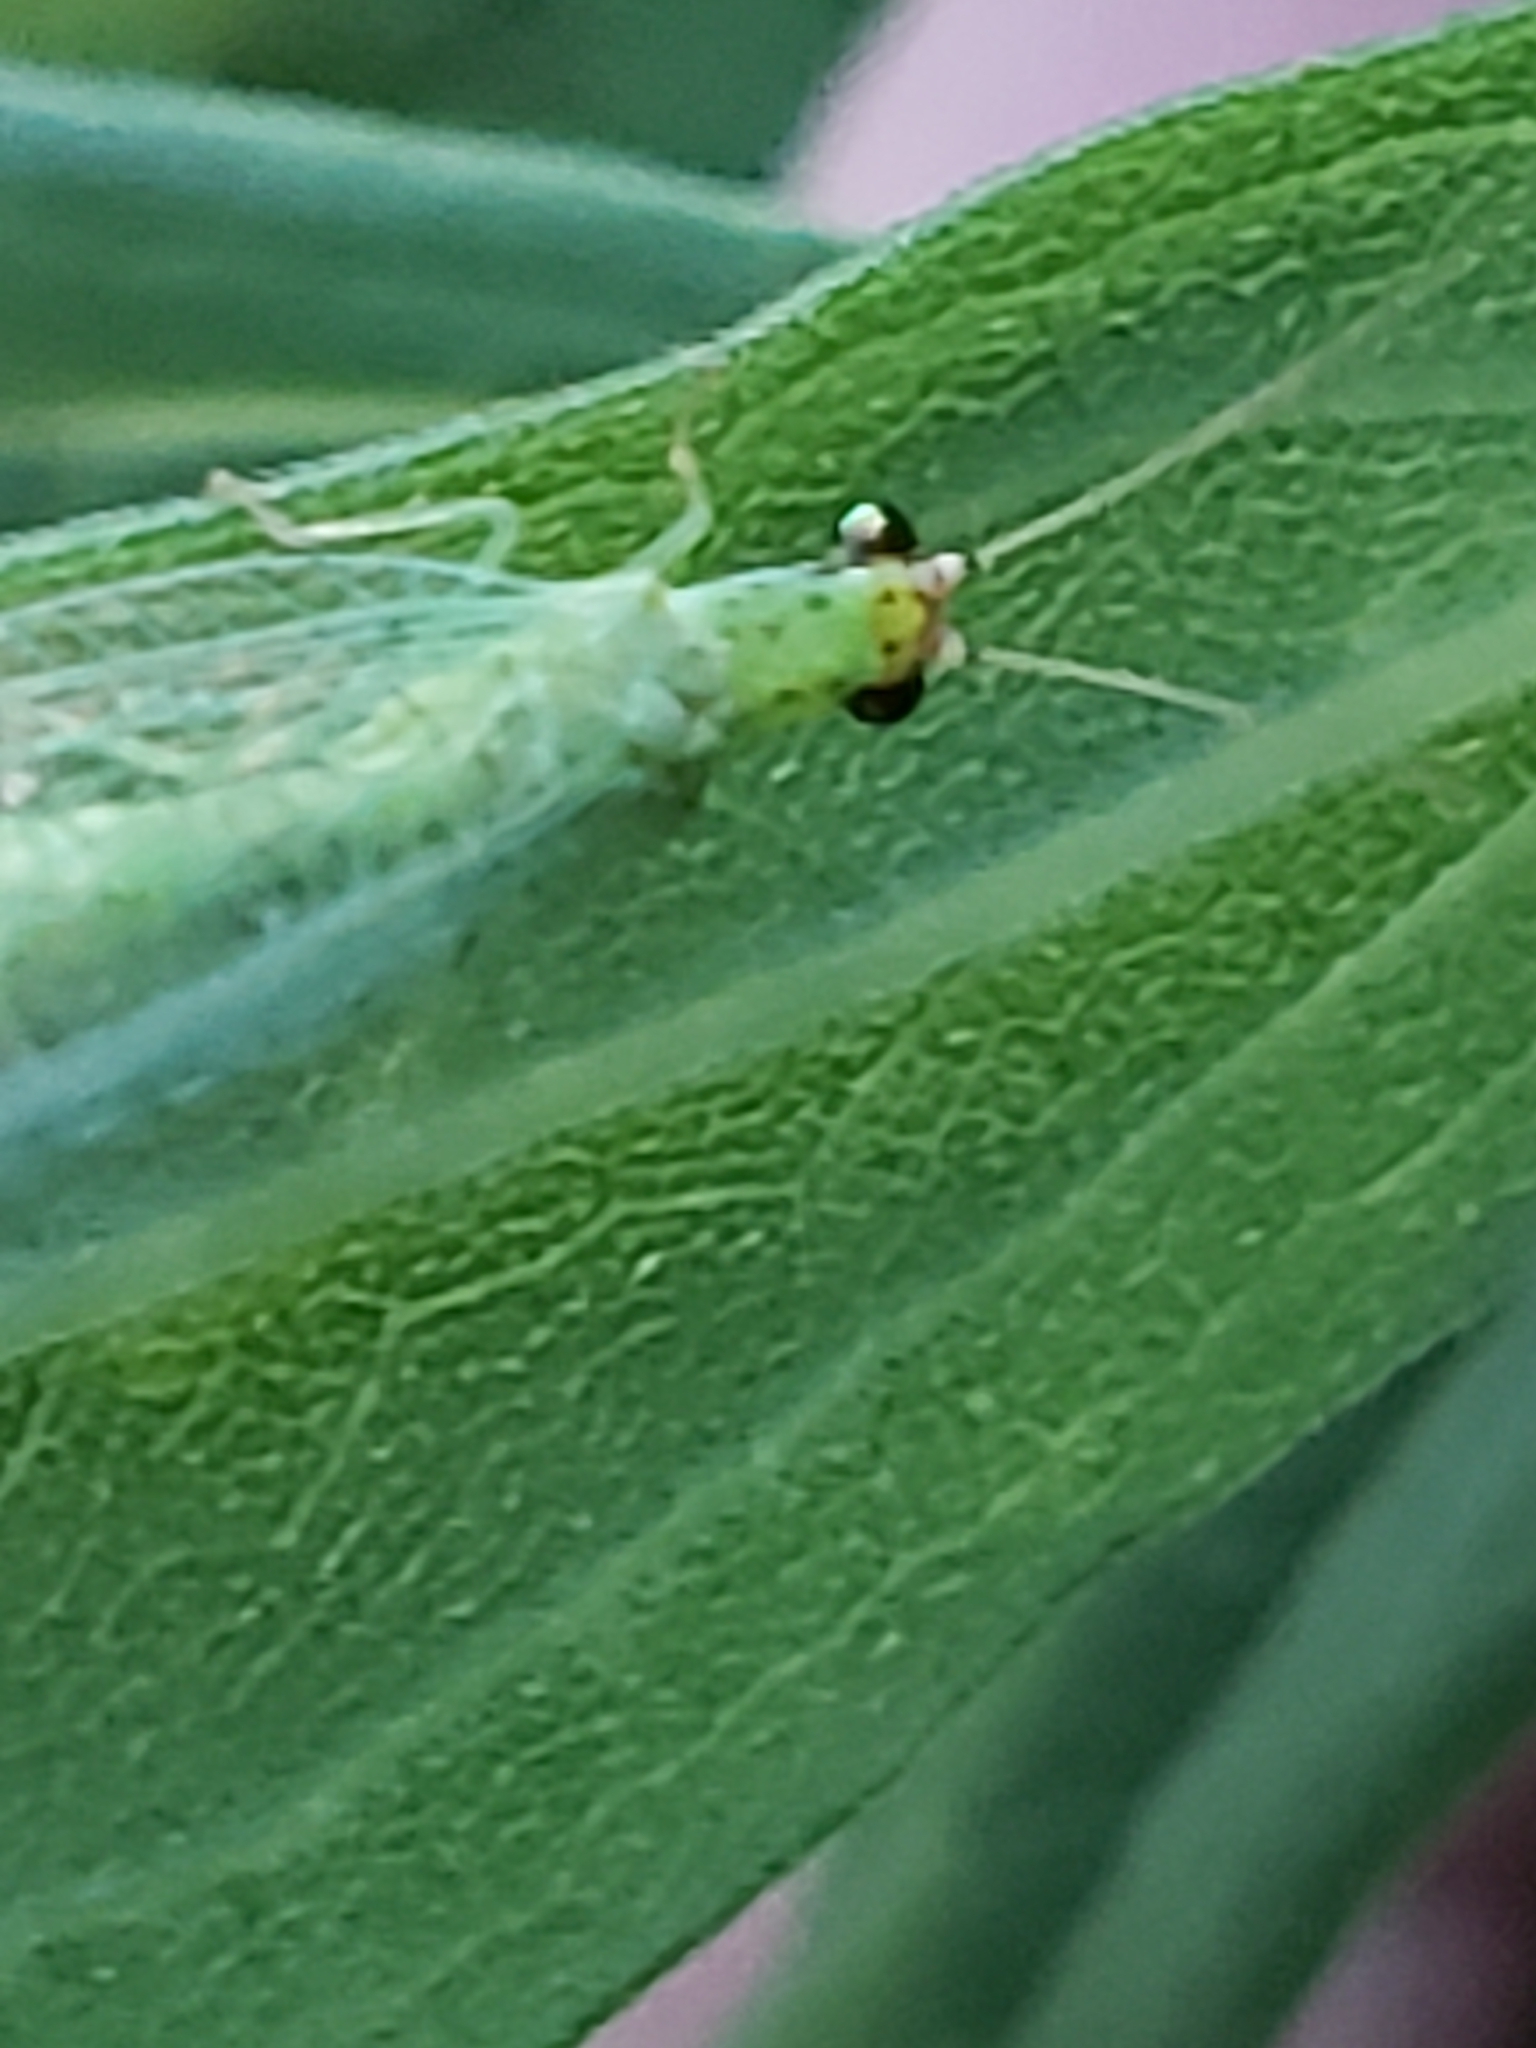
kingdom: Animalia
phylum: Arthropoda
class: Insecta
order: Neuroptera
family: Chrysopidae
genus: Chrysopa
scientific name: Chrysopa oculata
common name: Golden-eyed lacewing
